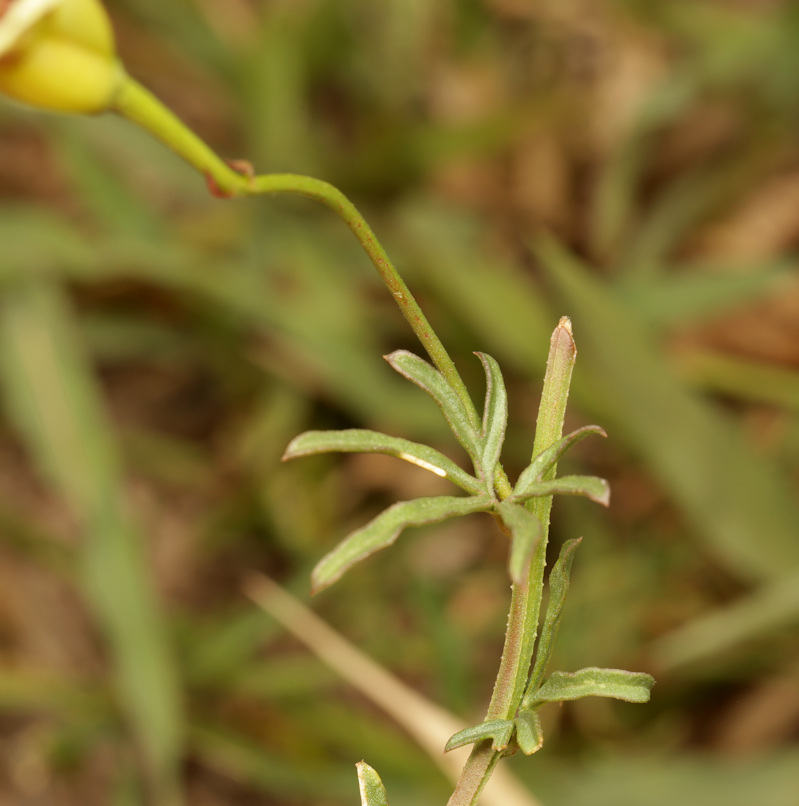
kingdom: Plantae
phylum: Tracheophyta
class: Magnoliopsida
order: Solanales
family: Convolvulaceae
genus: Merremia
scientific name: Merremia palmata
